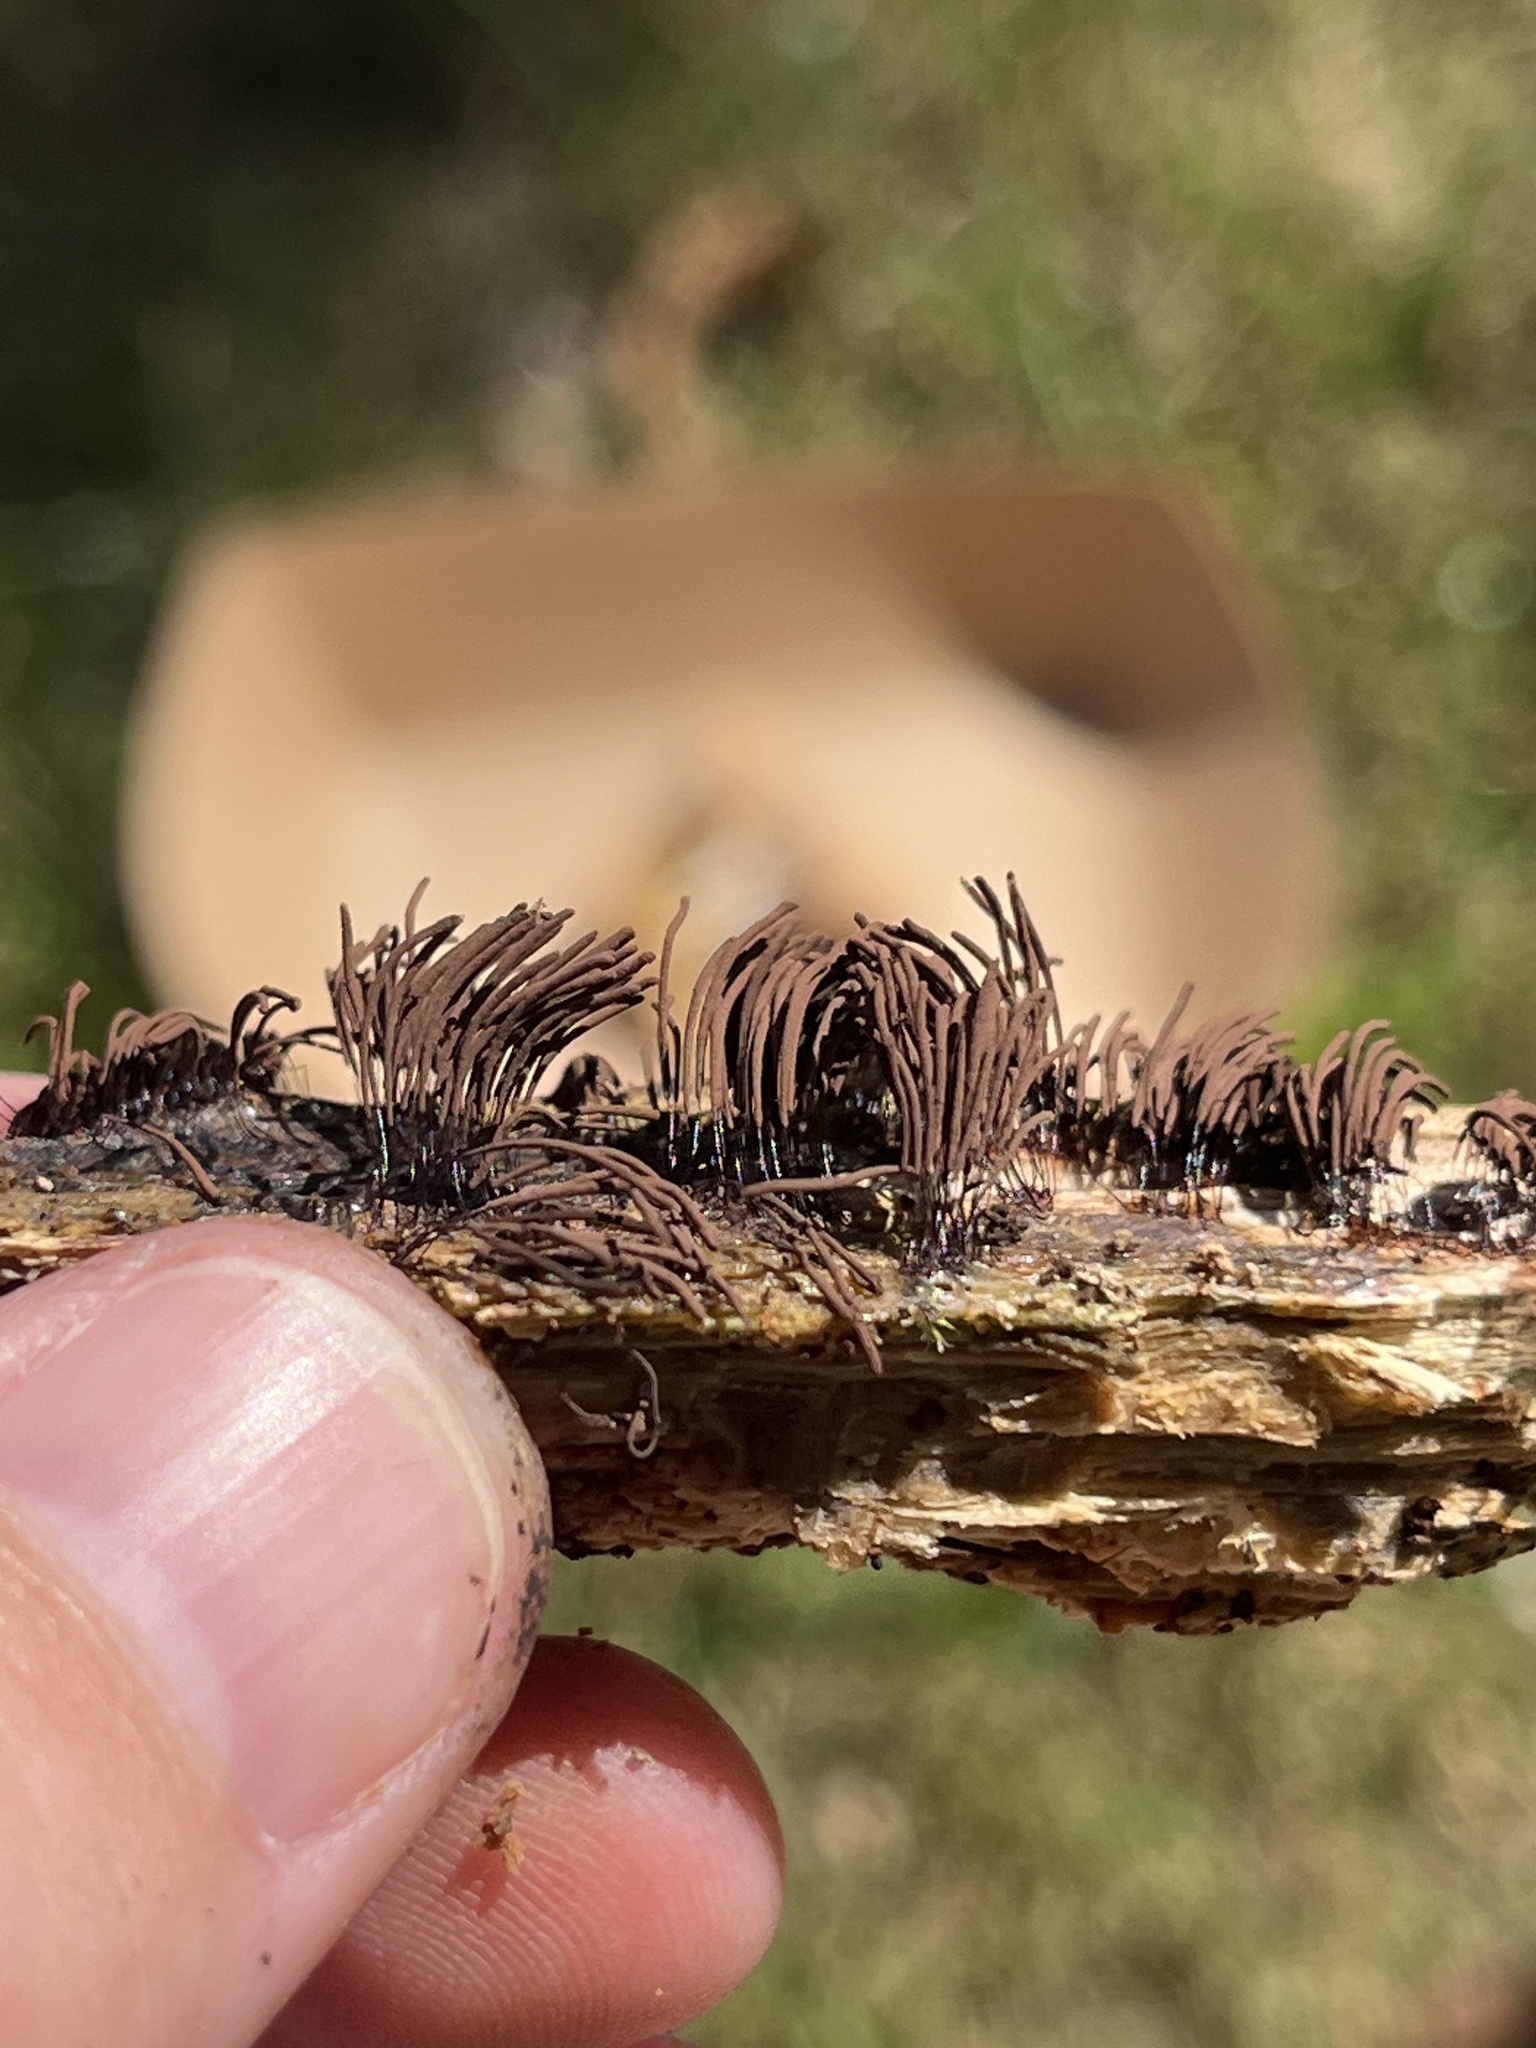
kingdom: Protozoa
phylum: Mycetozoa
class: Myxomycetes
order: Stemonitidales
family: Stemonitidaceae
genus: Stemonitis
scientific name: Stemonitis splendens
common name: Chocolate tube slime
